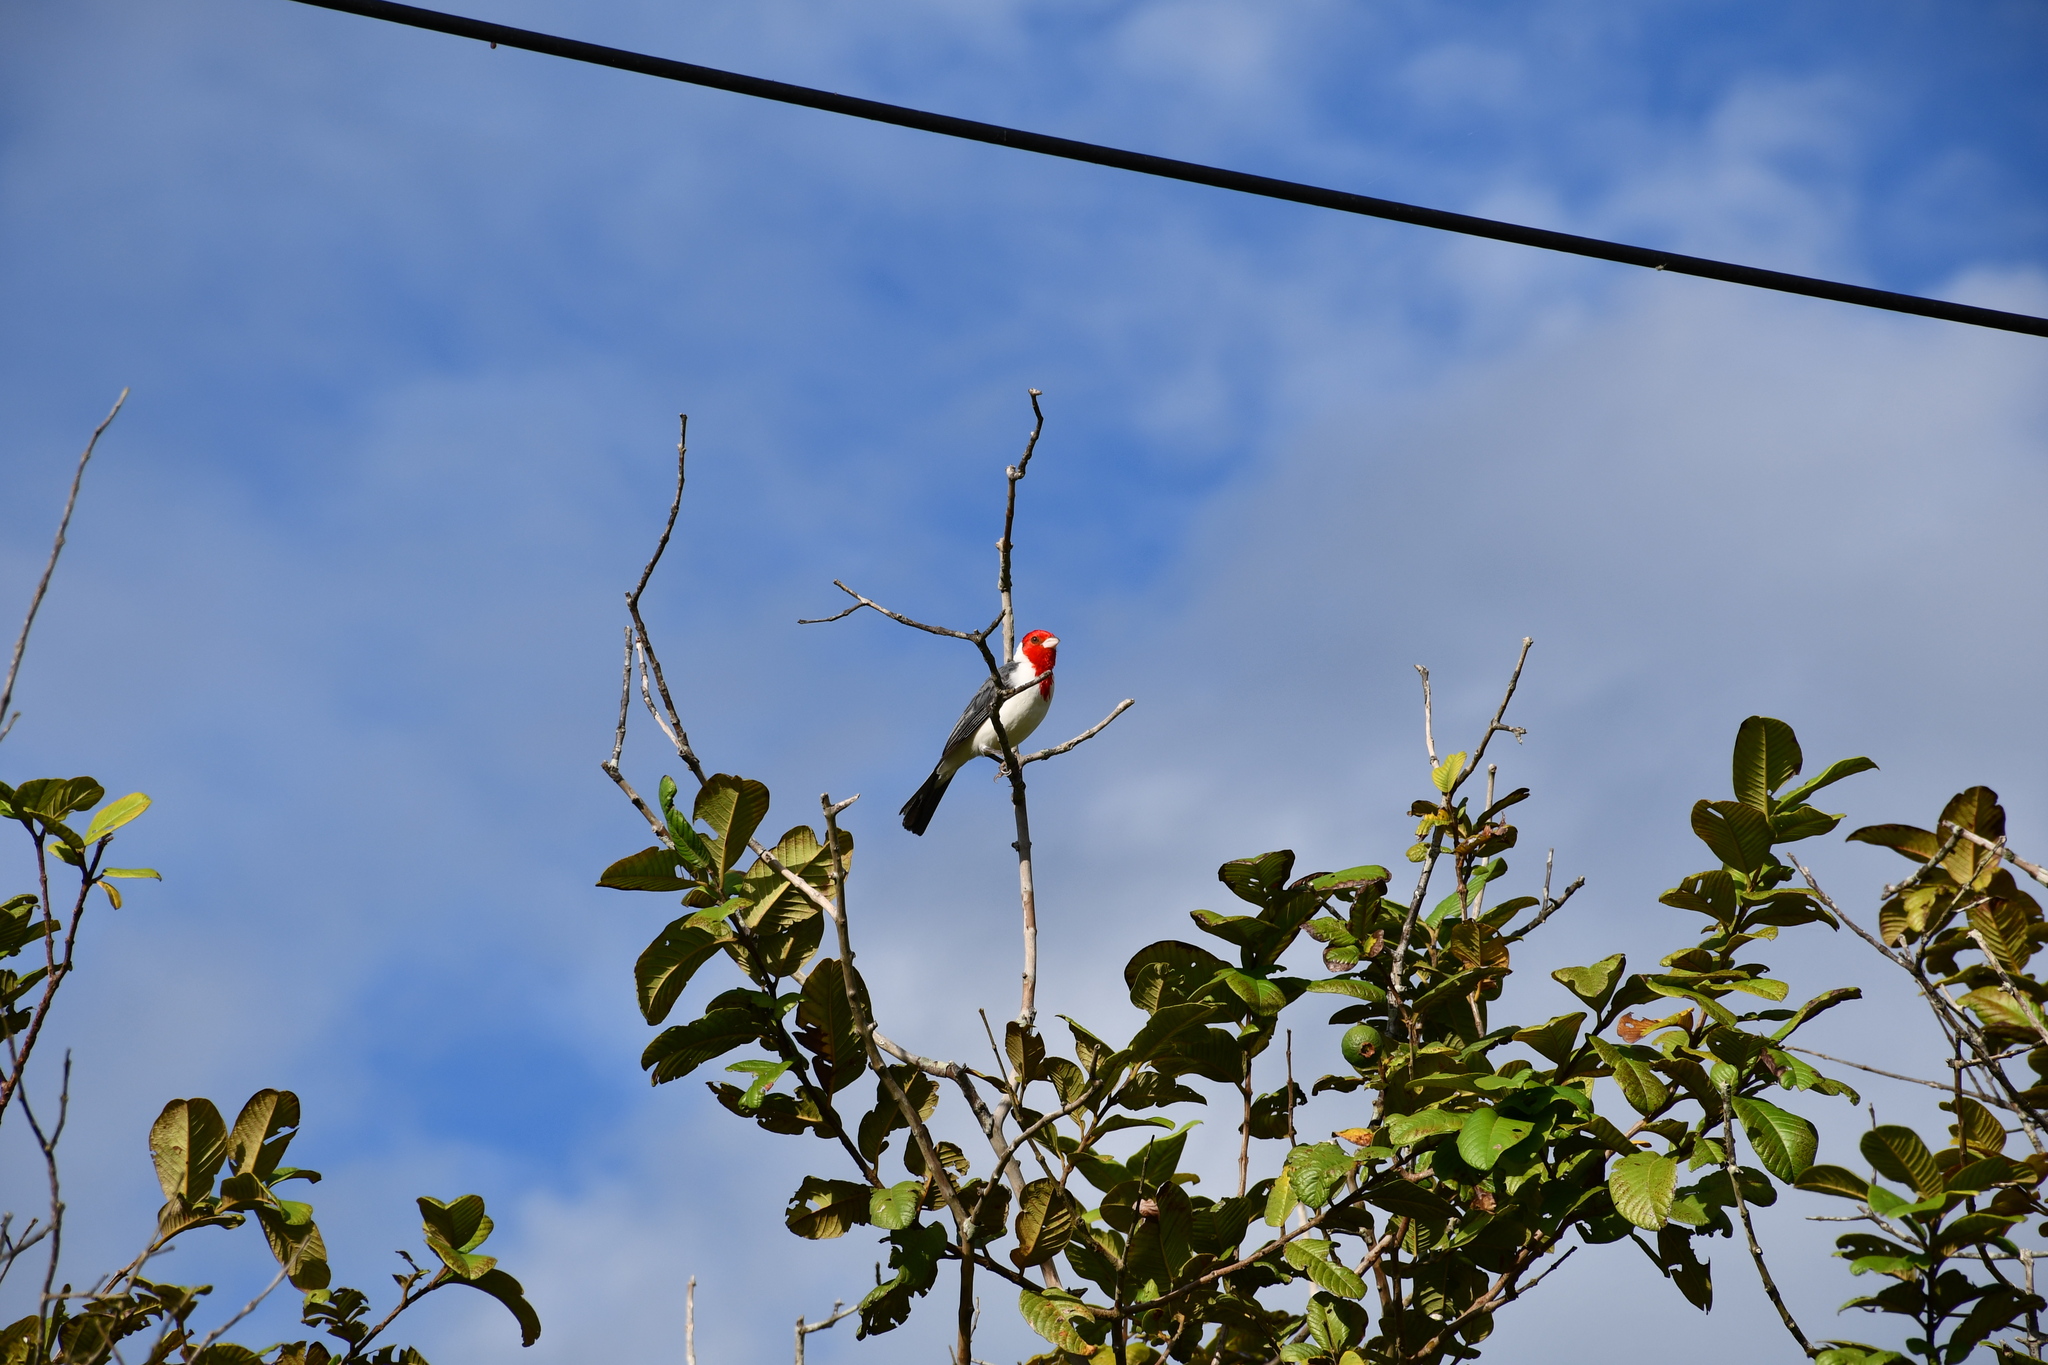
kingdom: Animalia
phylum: Chordata
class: Aves
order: Passeriformes
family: Thraupidae
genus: Paroaria
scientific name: Paroaria coronata
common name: Red-crested cardinal
